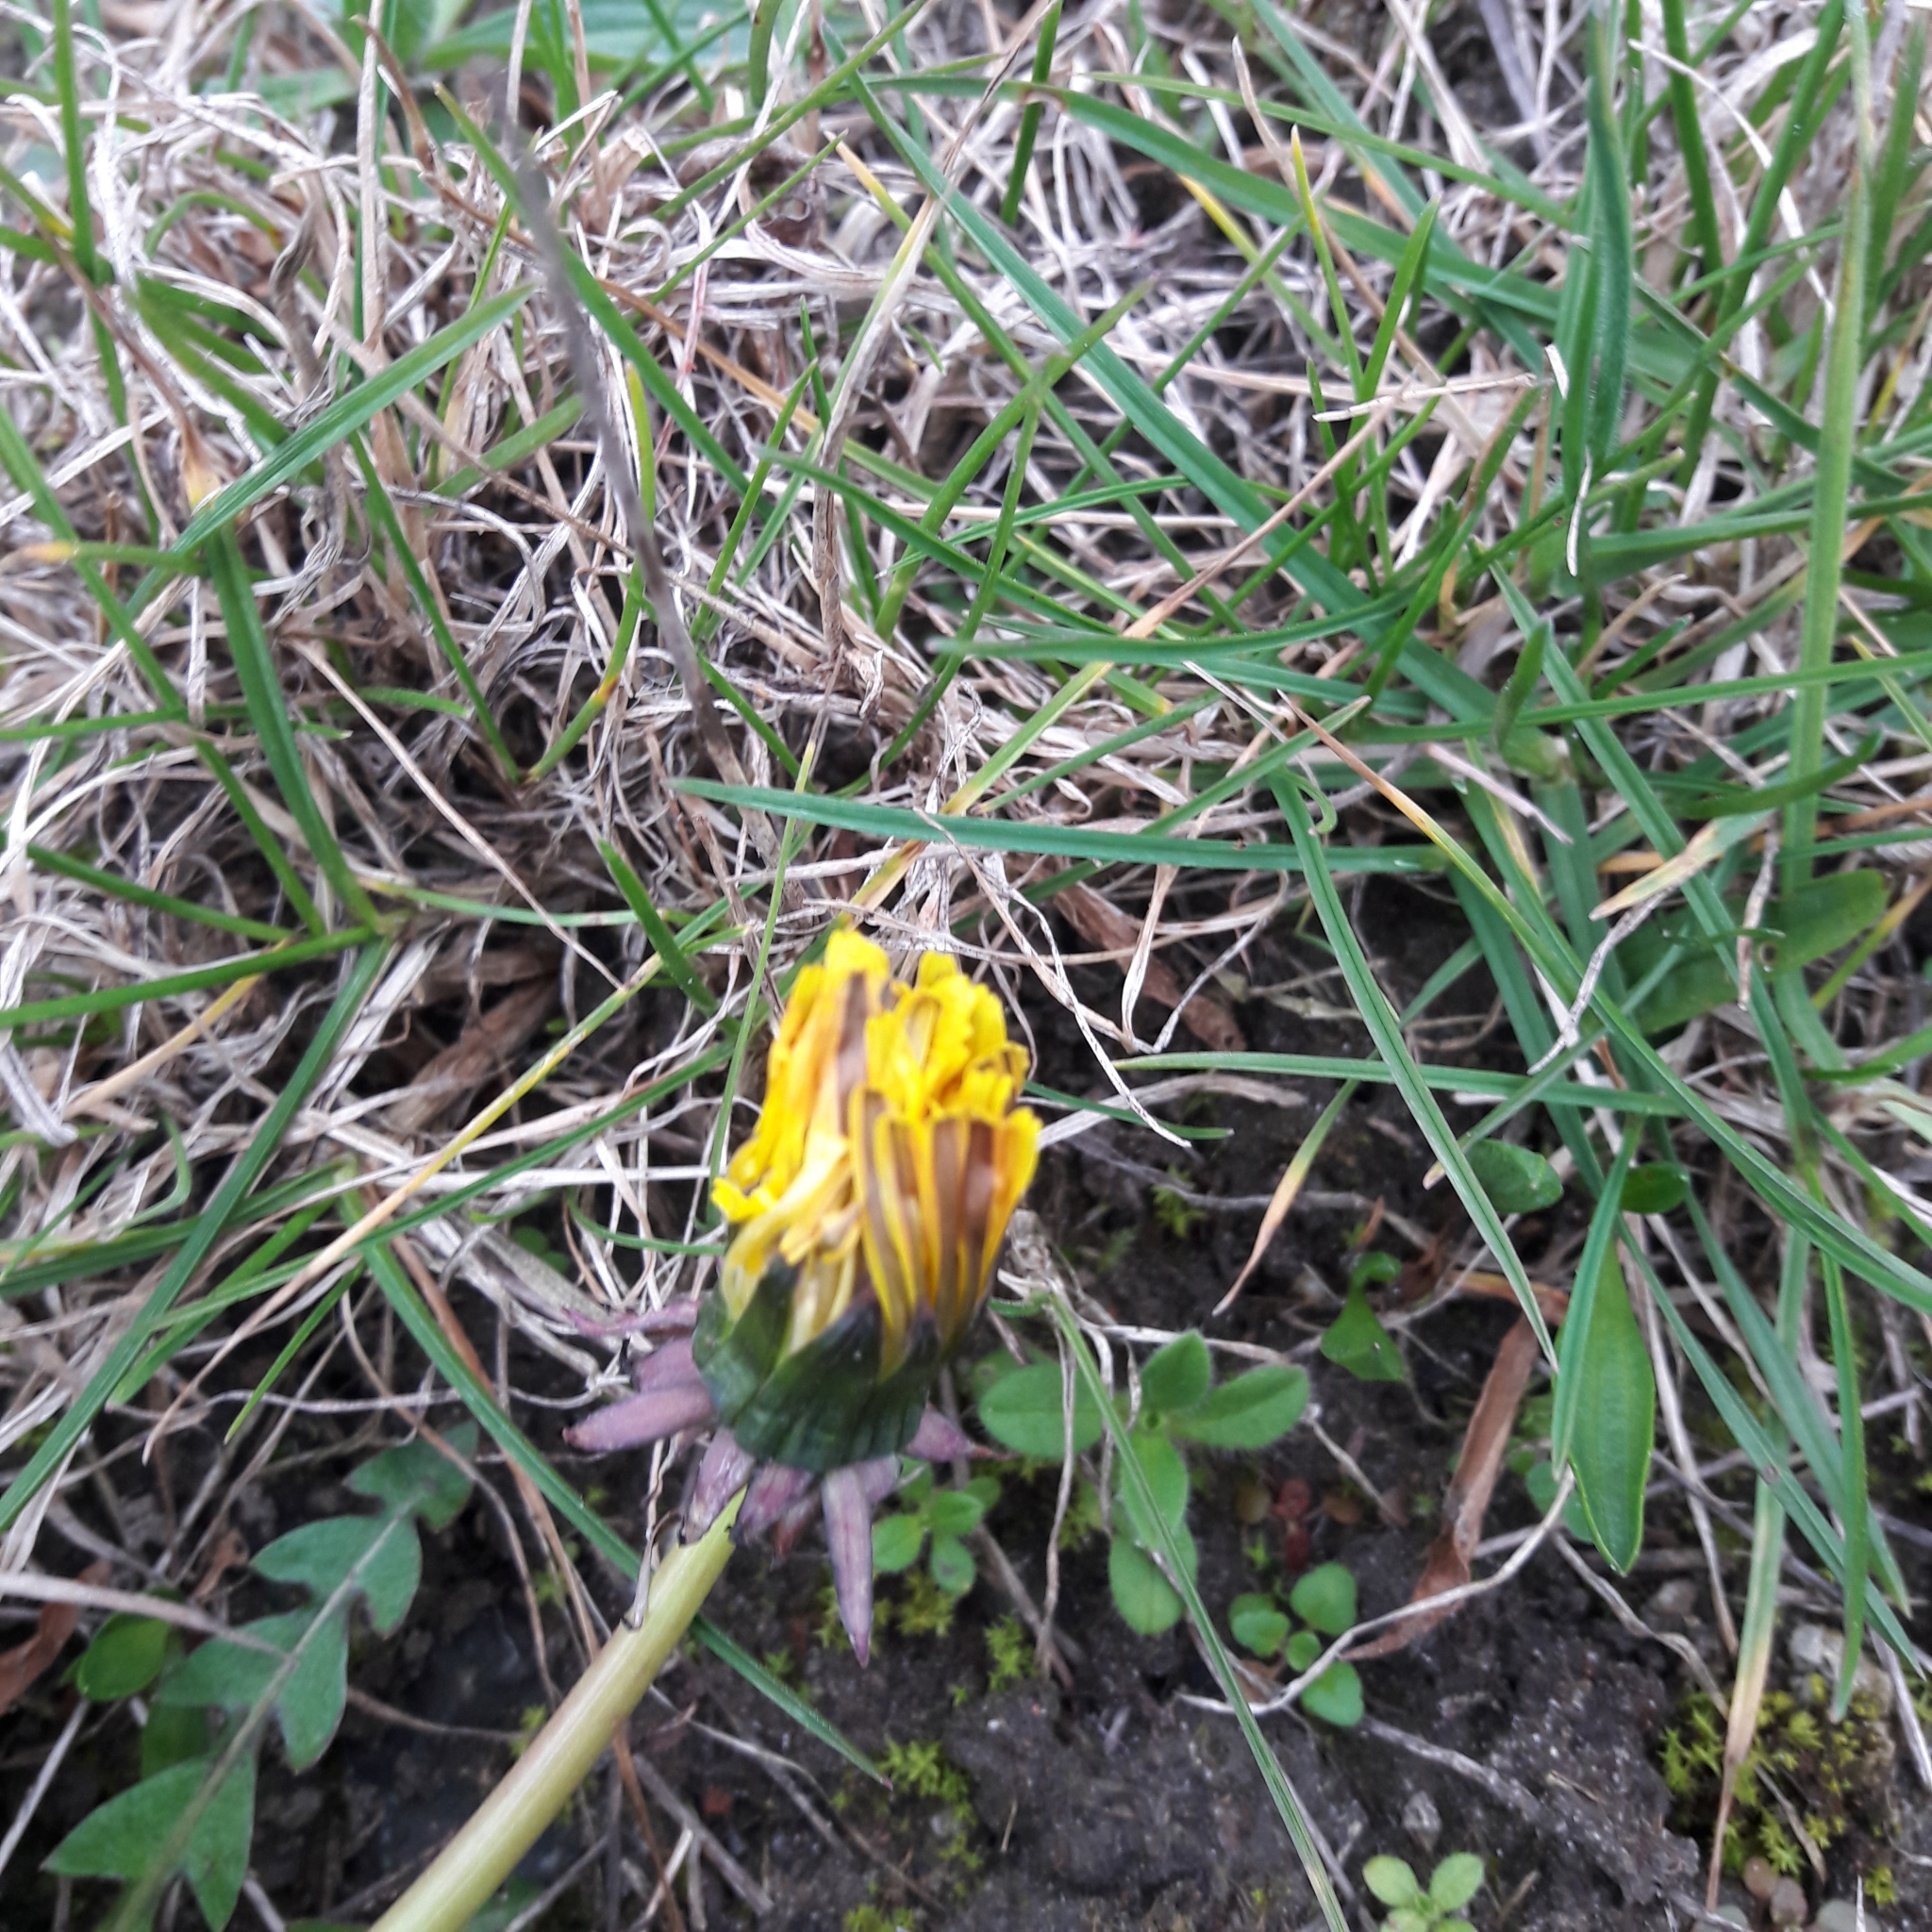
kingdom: Plantae
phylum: Tracheophyta
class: Magnoliopsida
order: Asterales
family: Asteraceae
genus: Taraxacum
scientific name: Taraxacum officinale
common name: Common dandelion
